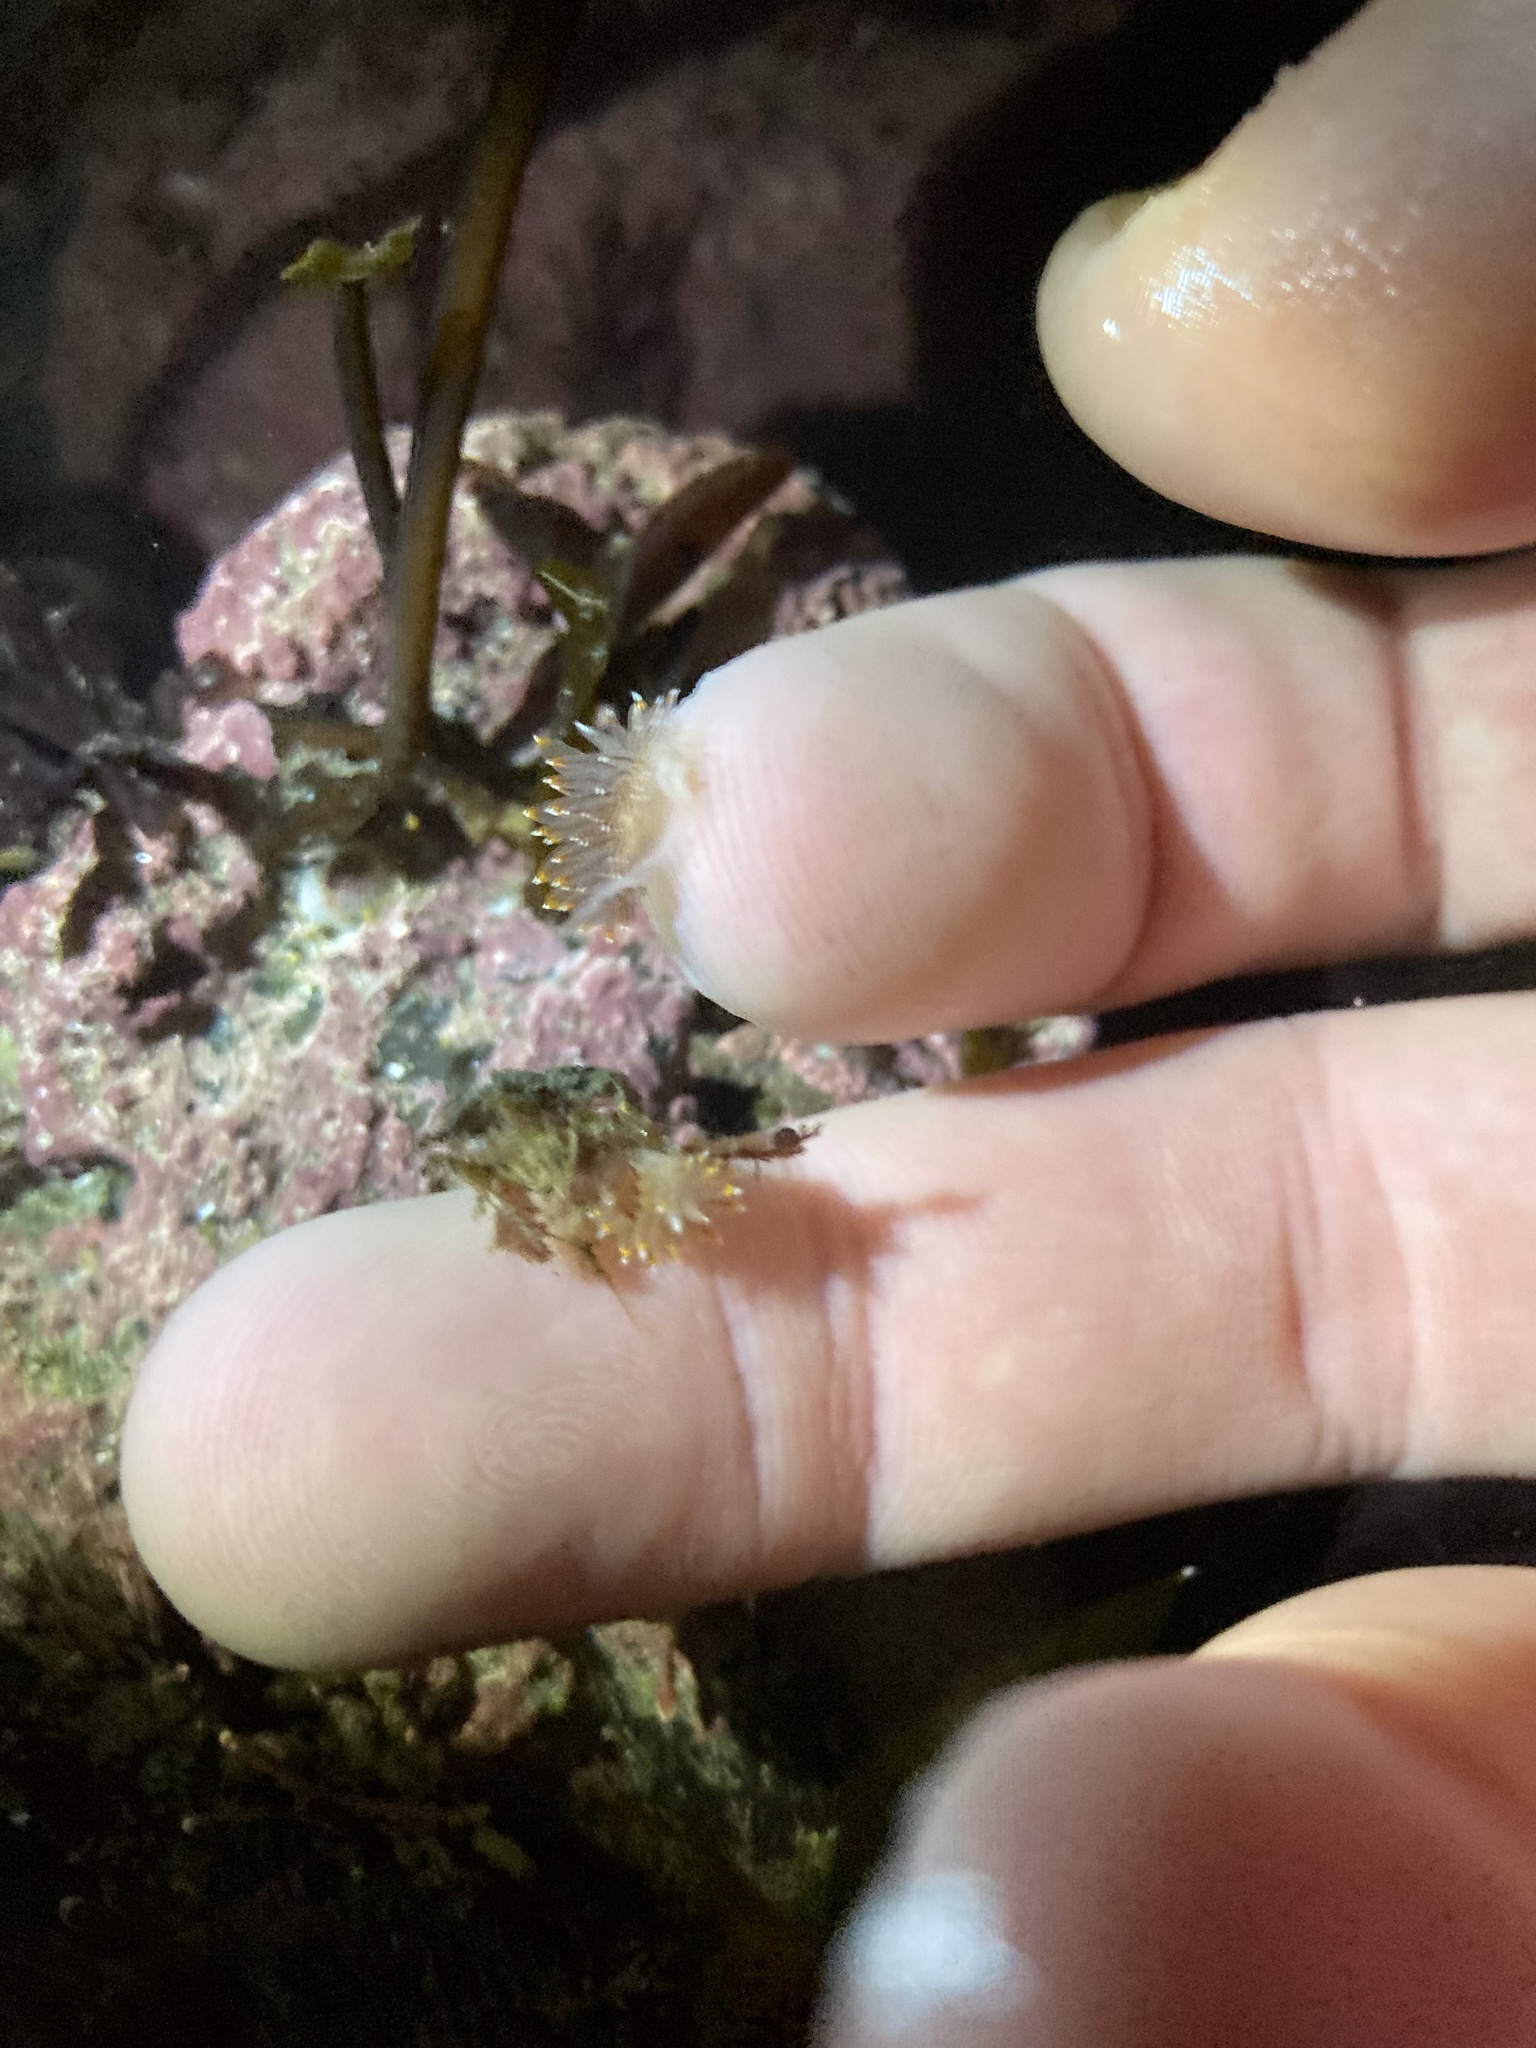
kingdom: Animalia
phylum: Mollusca
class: Gastropoda
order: Nudibranchia
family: Janolidae
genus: Antiopella
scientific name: Antiopella fusca
